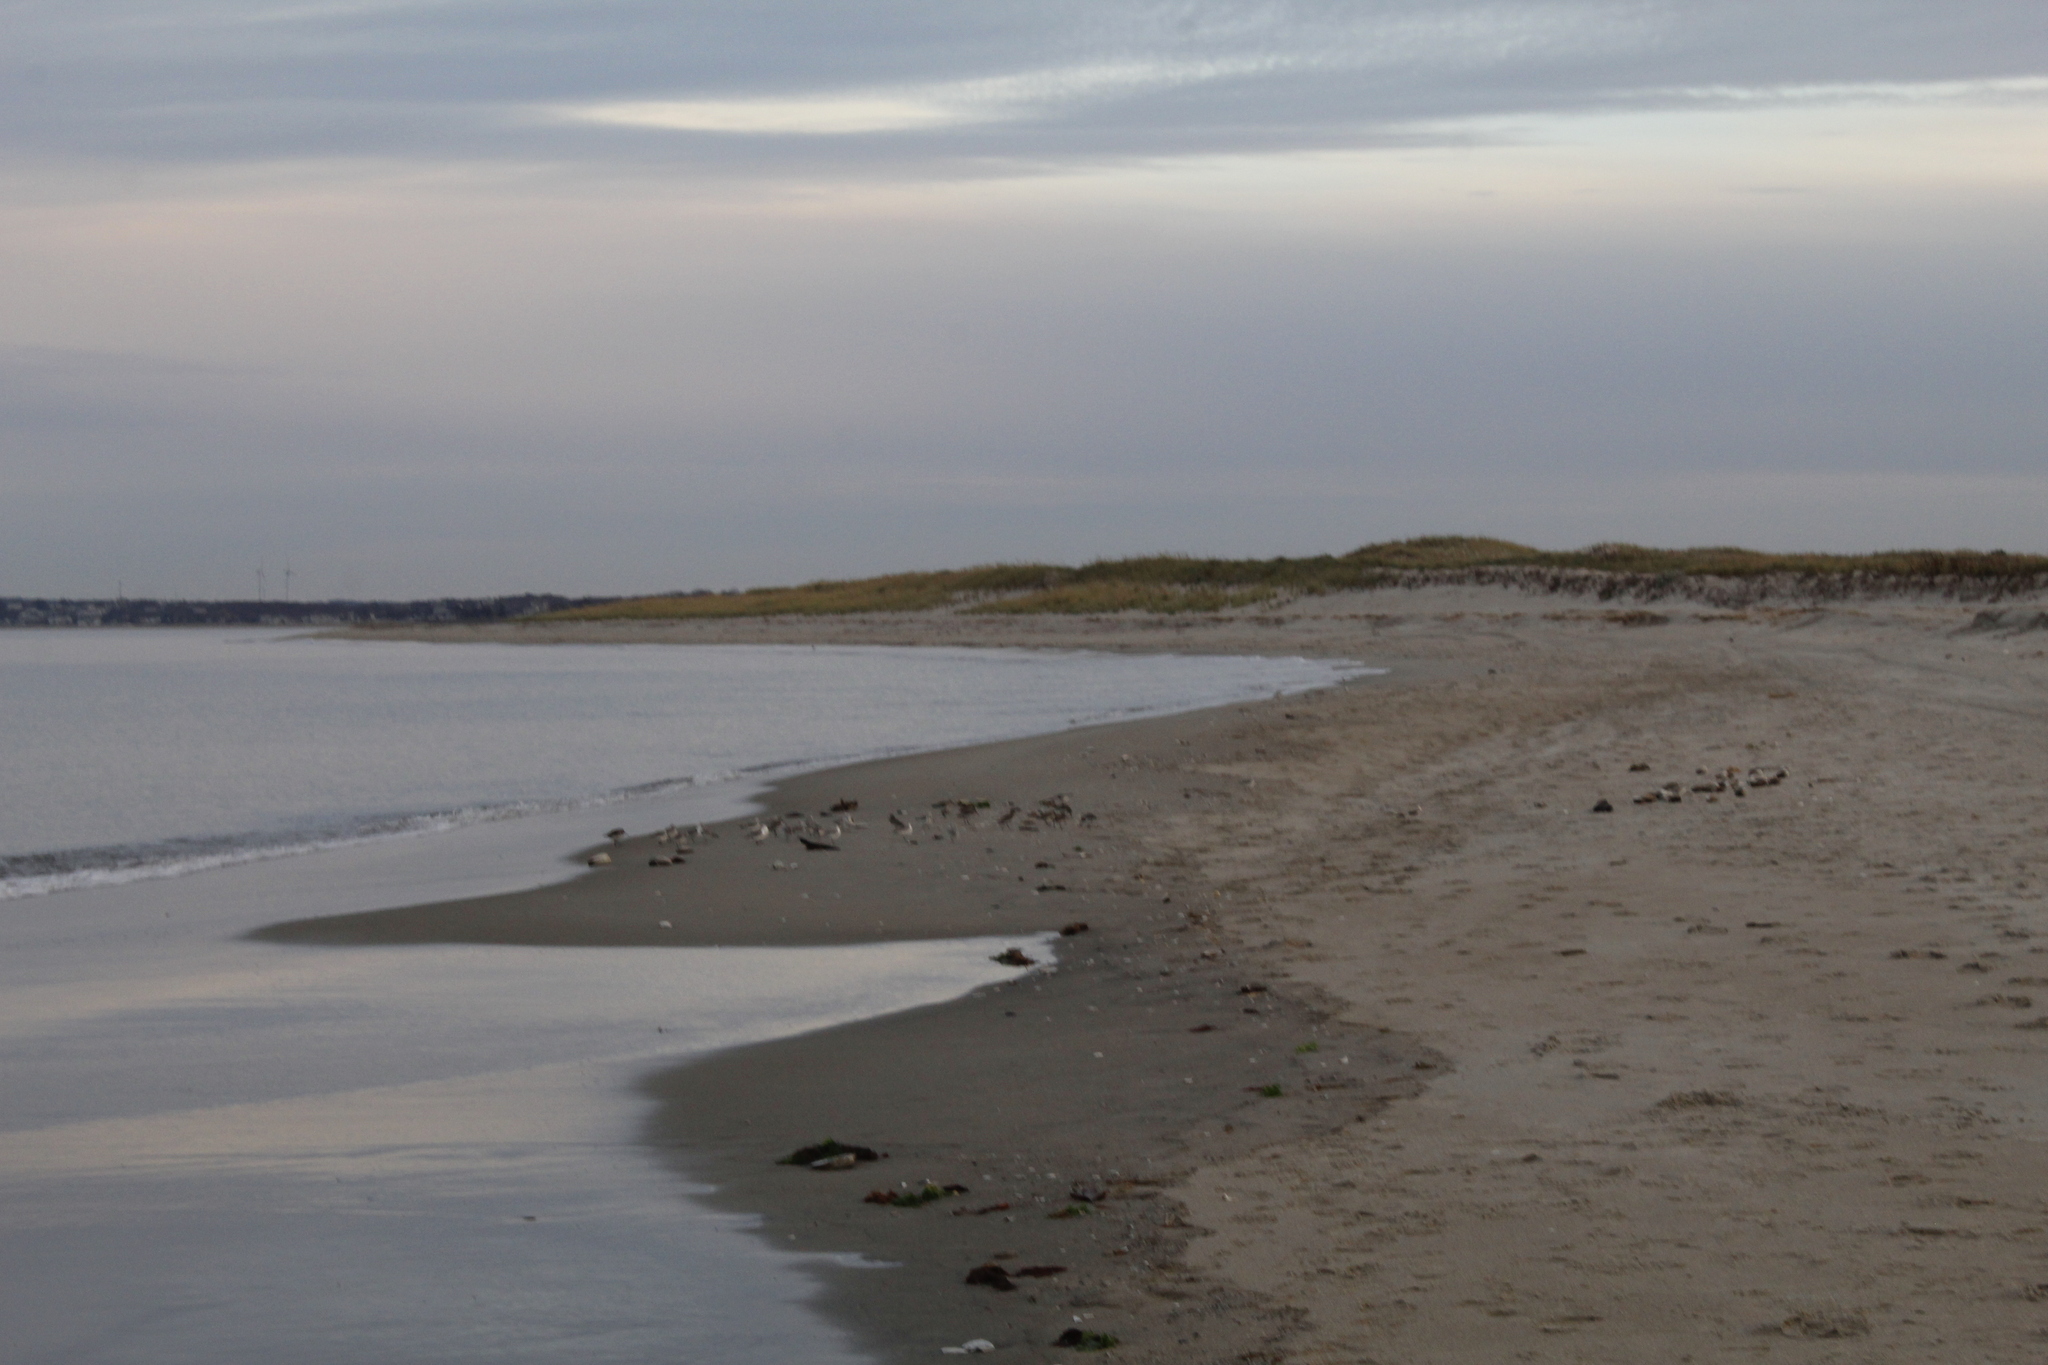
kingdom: Animalia
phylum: Chordata
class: Aves
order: Charadriiformes
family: Scolopacidae
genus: Calidris
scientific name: Calidris alba
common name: Sanderling
